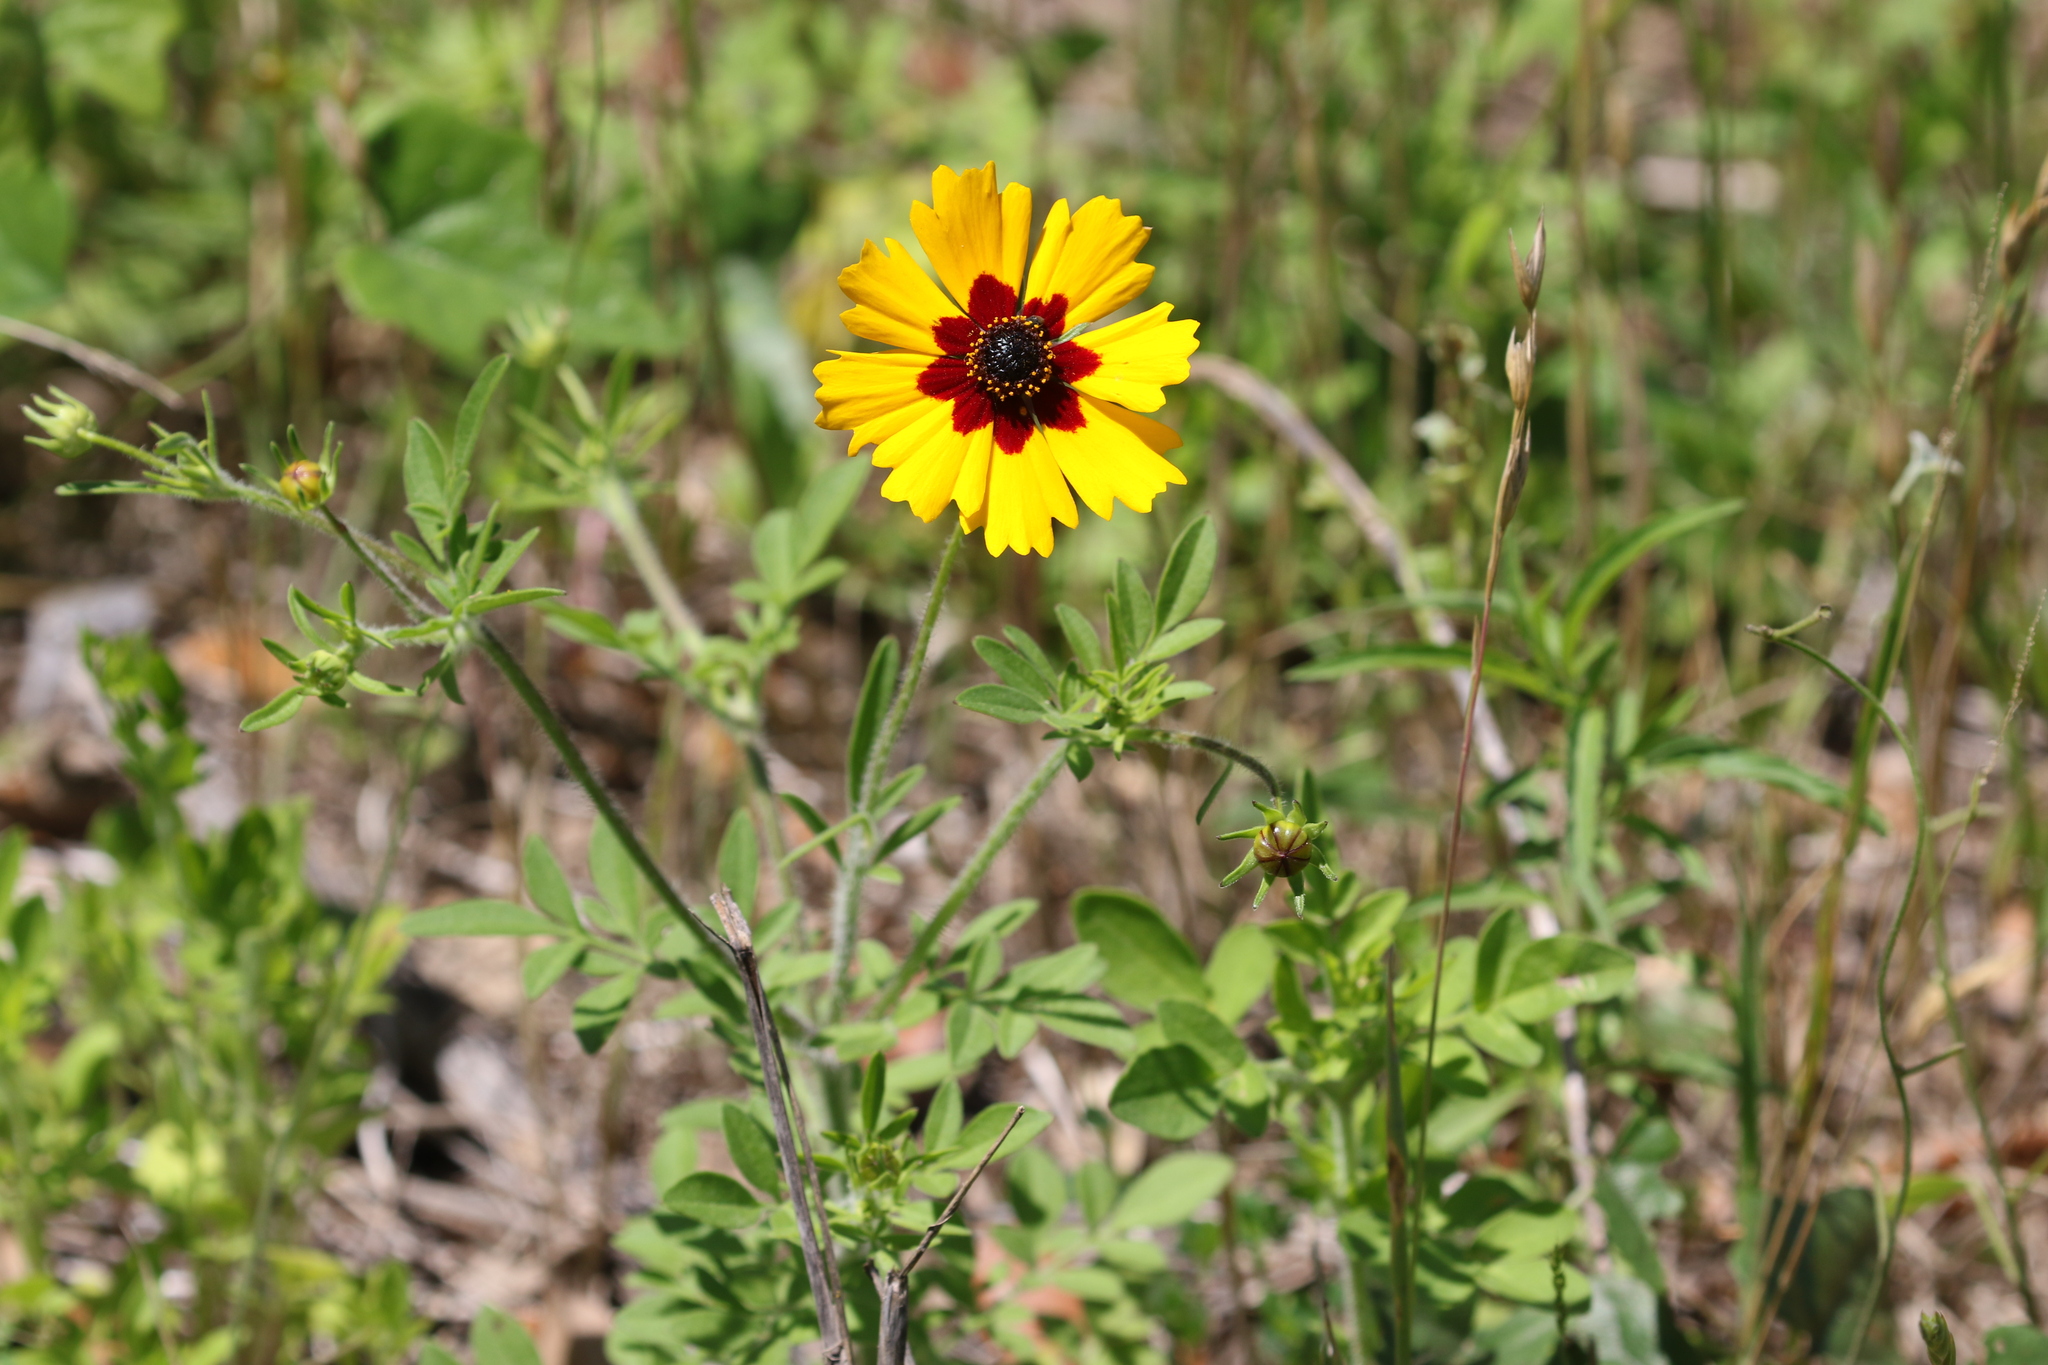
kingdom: Plantae
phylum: Tracheophyta
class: Magnoliopsida
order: Asterales
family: Asteraceae
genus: Coreopsis
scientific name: Coreopsis basalis
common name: Golden-mane coreopsis
